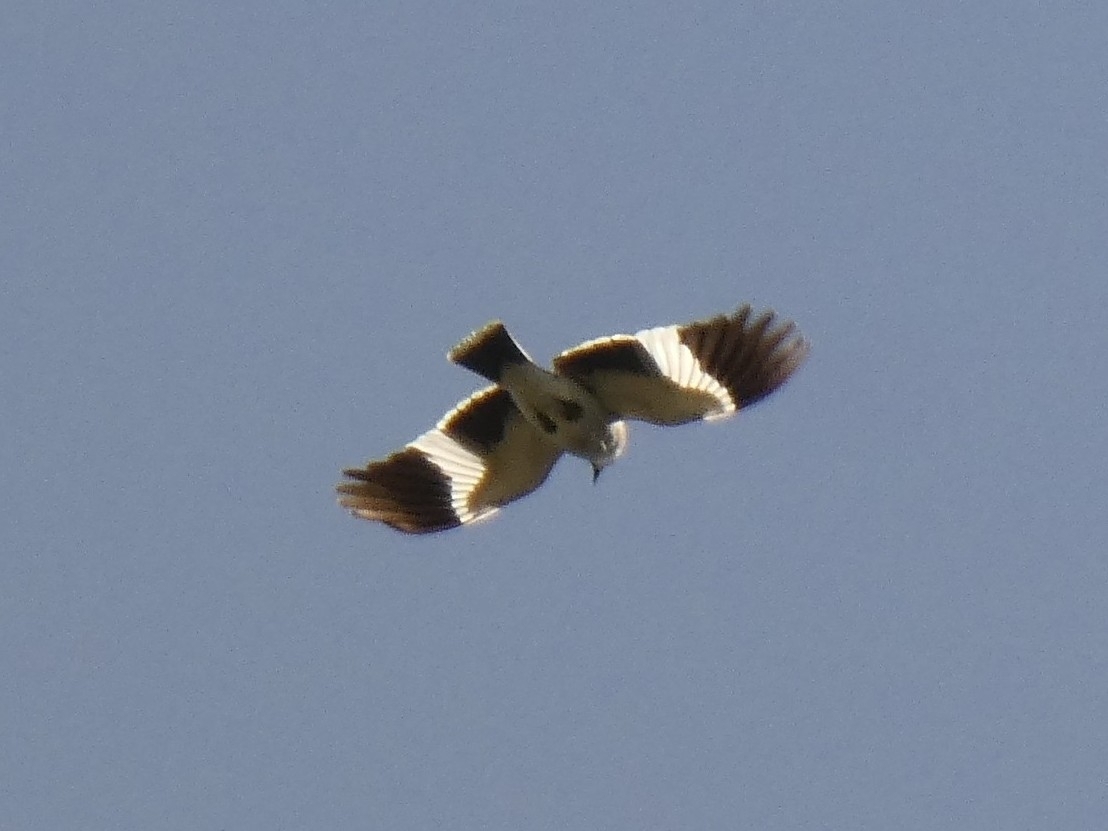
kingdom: Animalia
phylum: Chordata
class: Aves
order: Passeriformes
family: Tyrannidae
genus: Xolmis
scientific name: Xolmis cinereus
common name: Grey monjita
